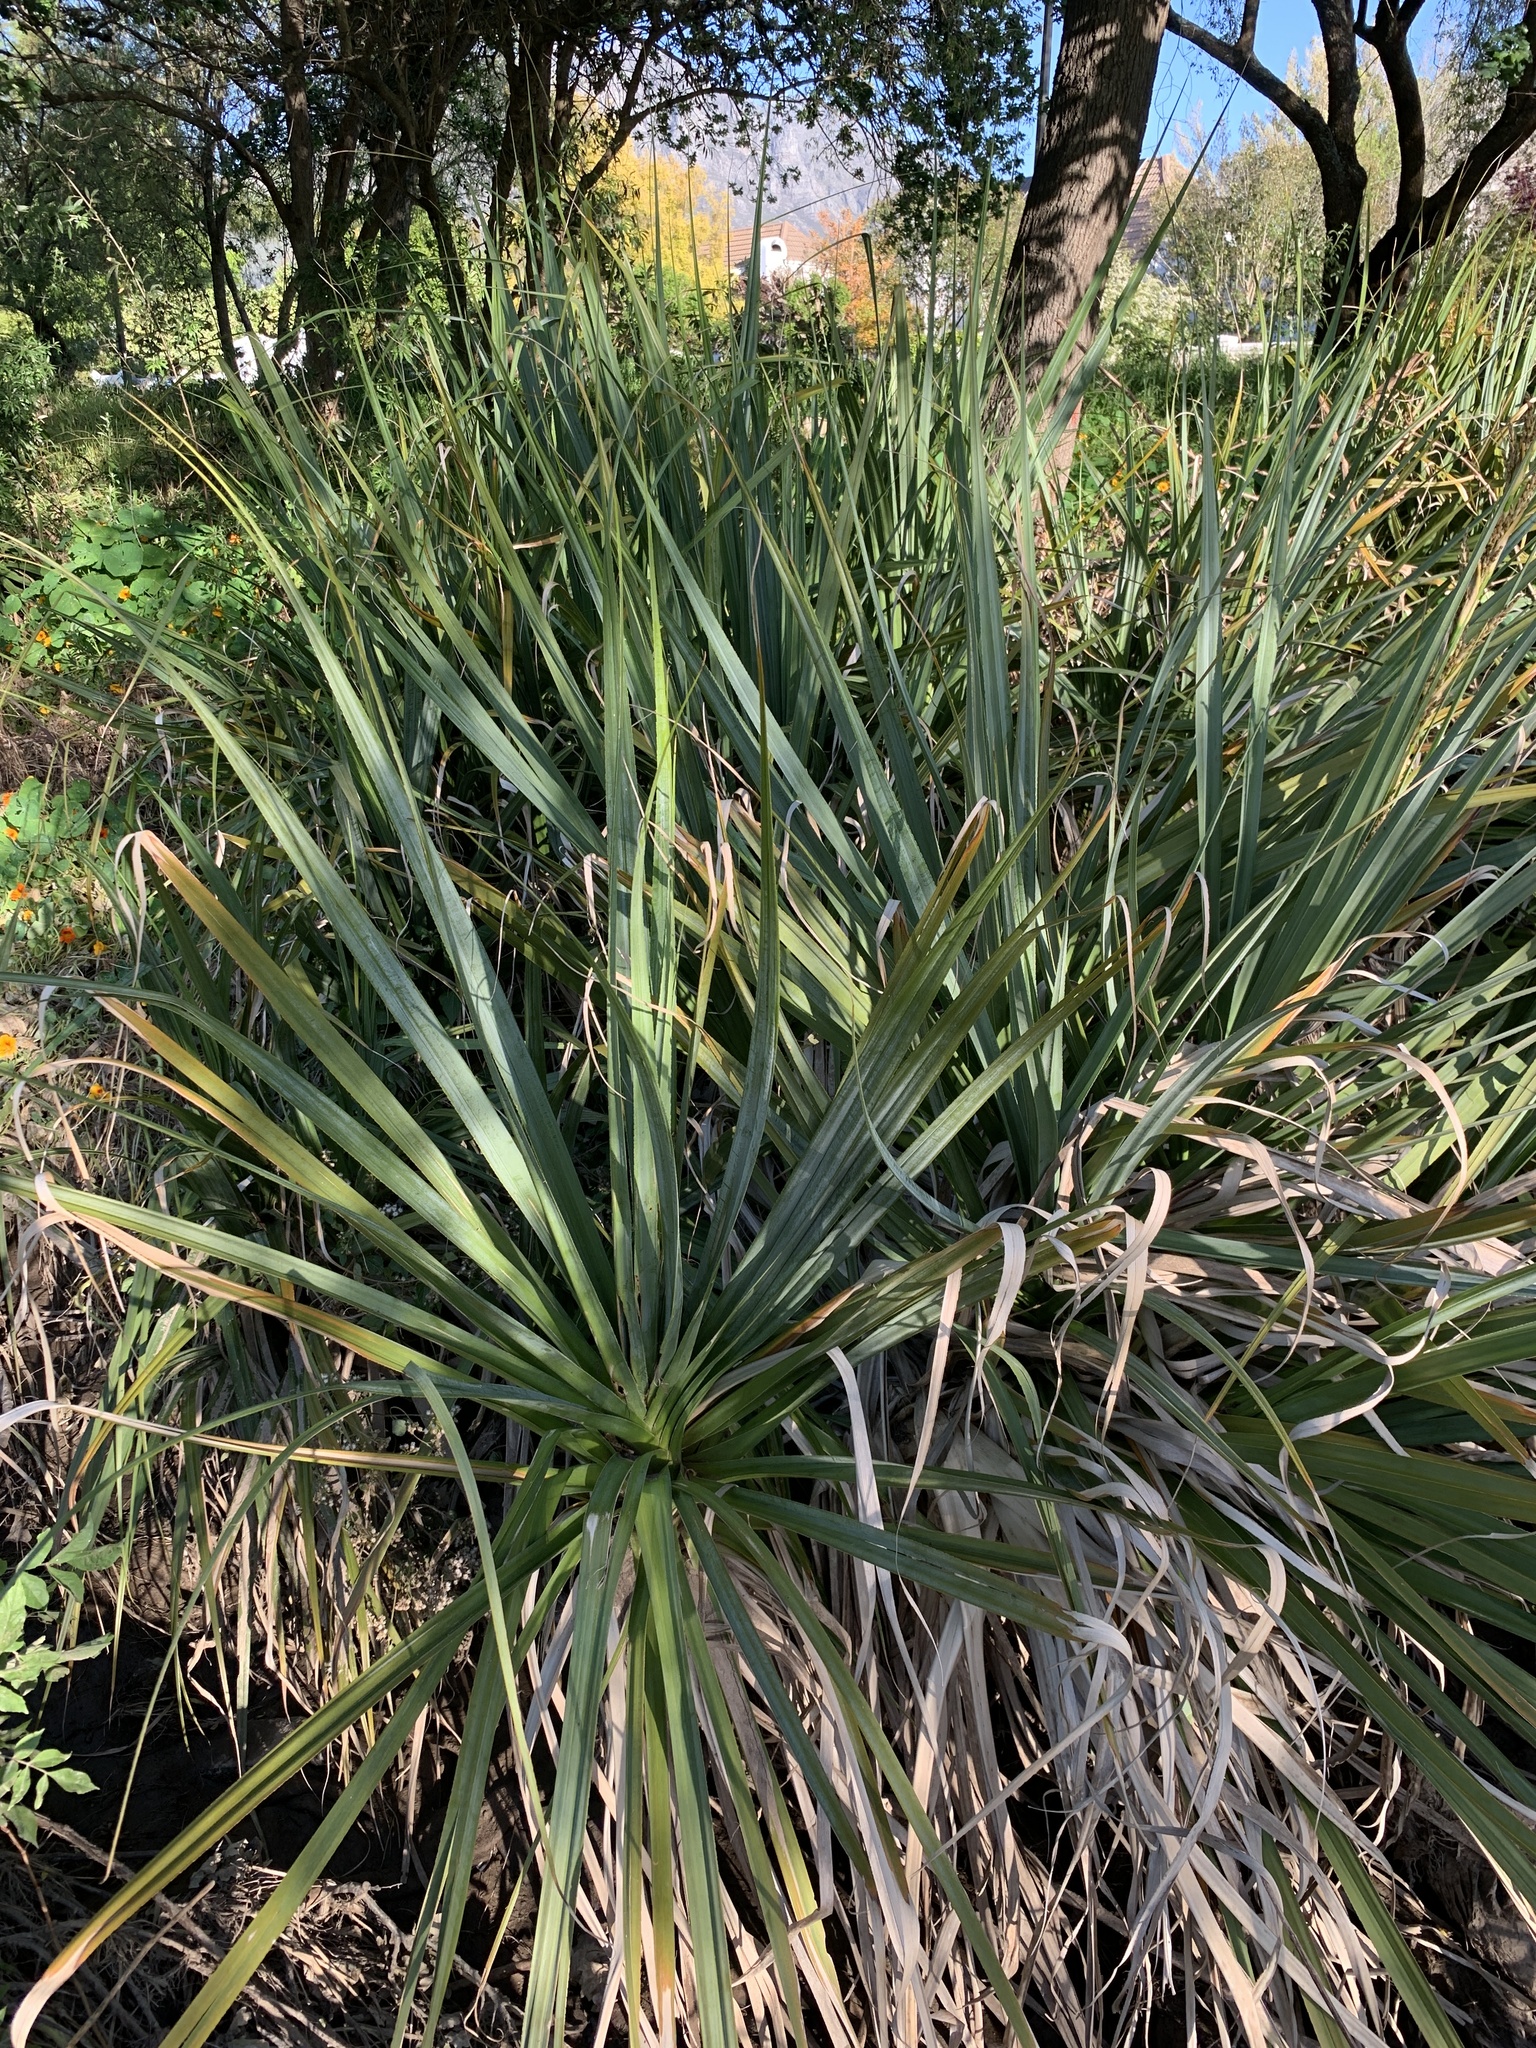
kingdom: Plantae
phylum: Tracheophyta
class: Liliopsida
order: Poales
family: Thurniaceae
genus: Prionium
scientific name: Prionium serratum
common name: Palmiet
